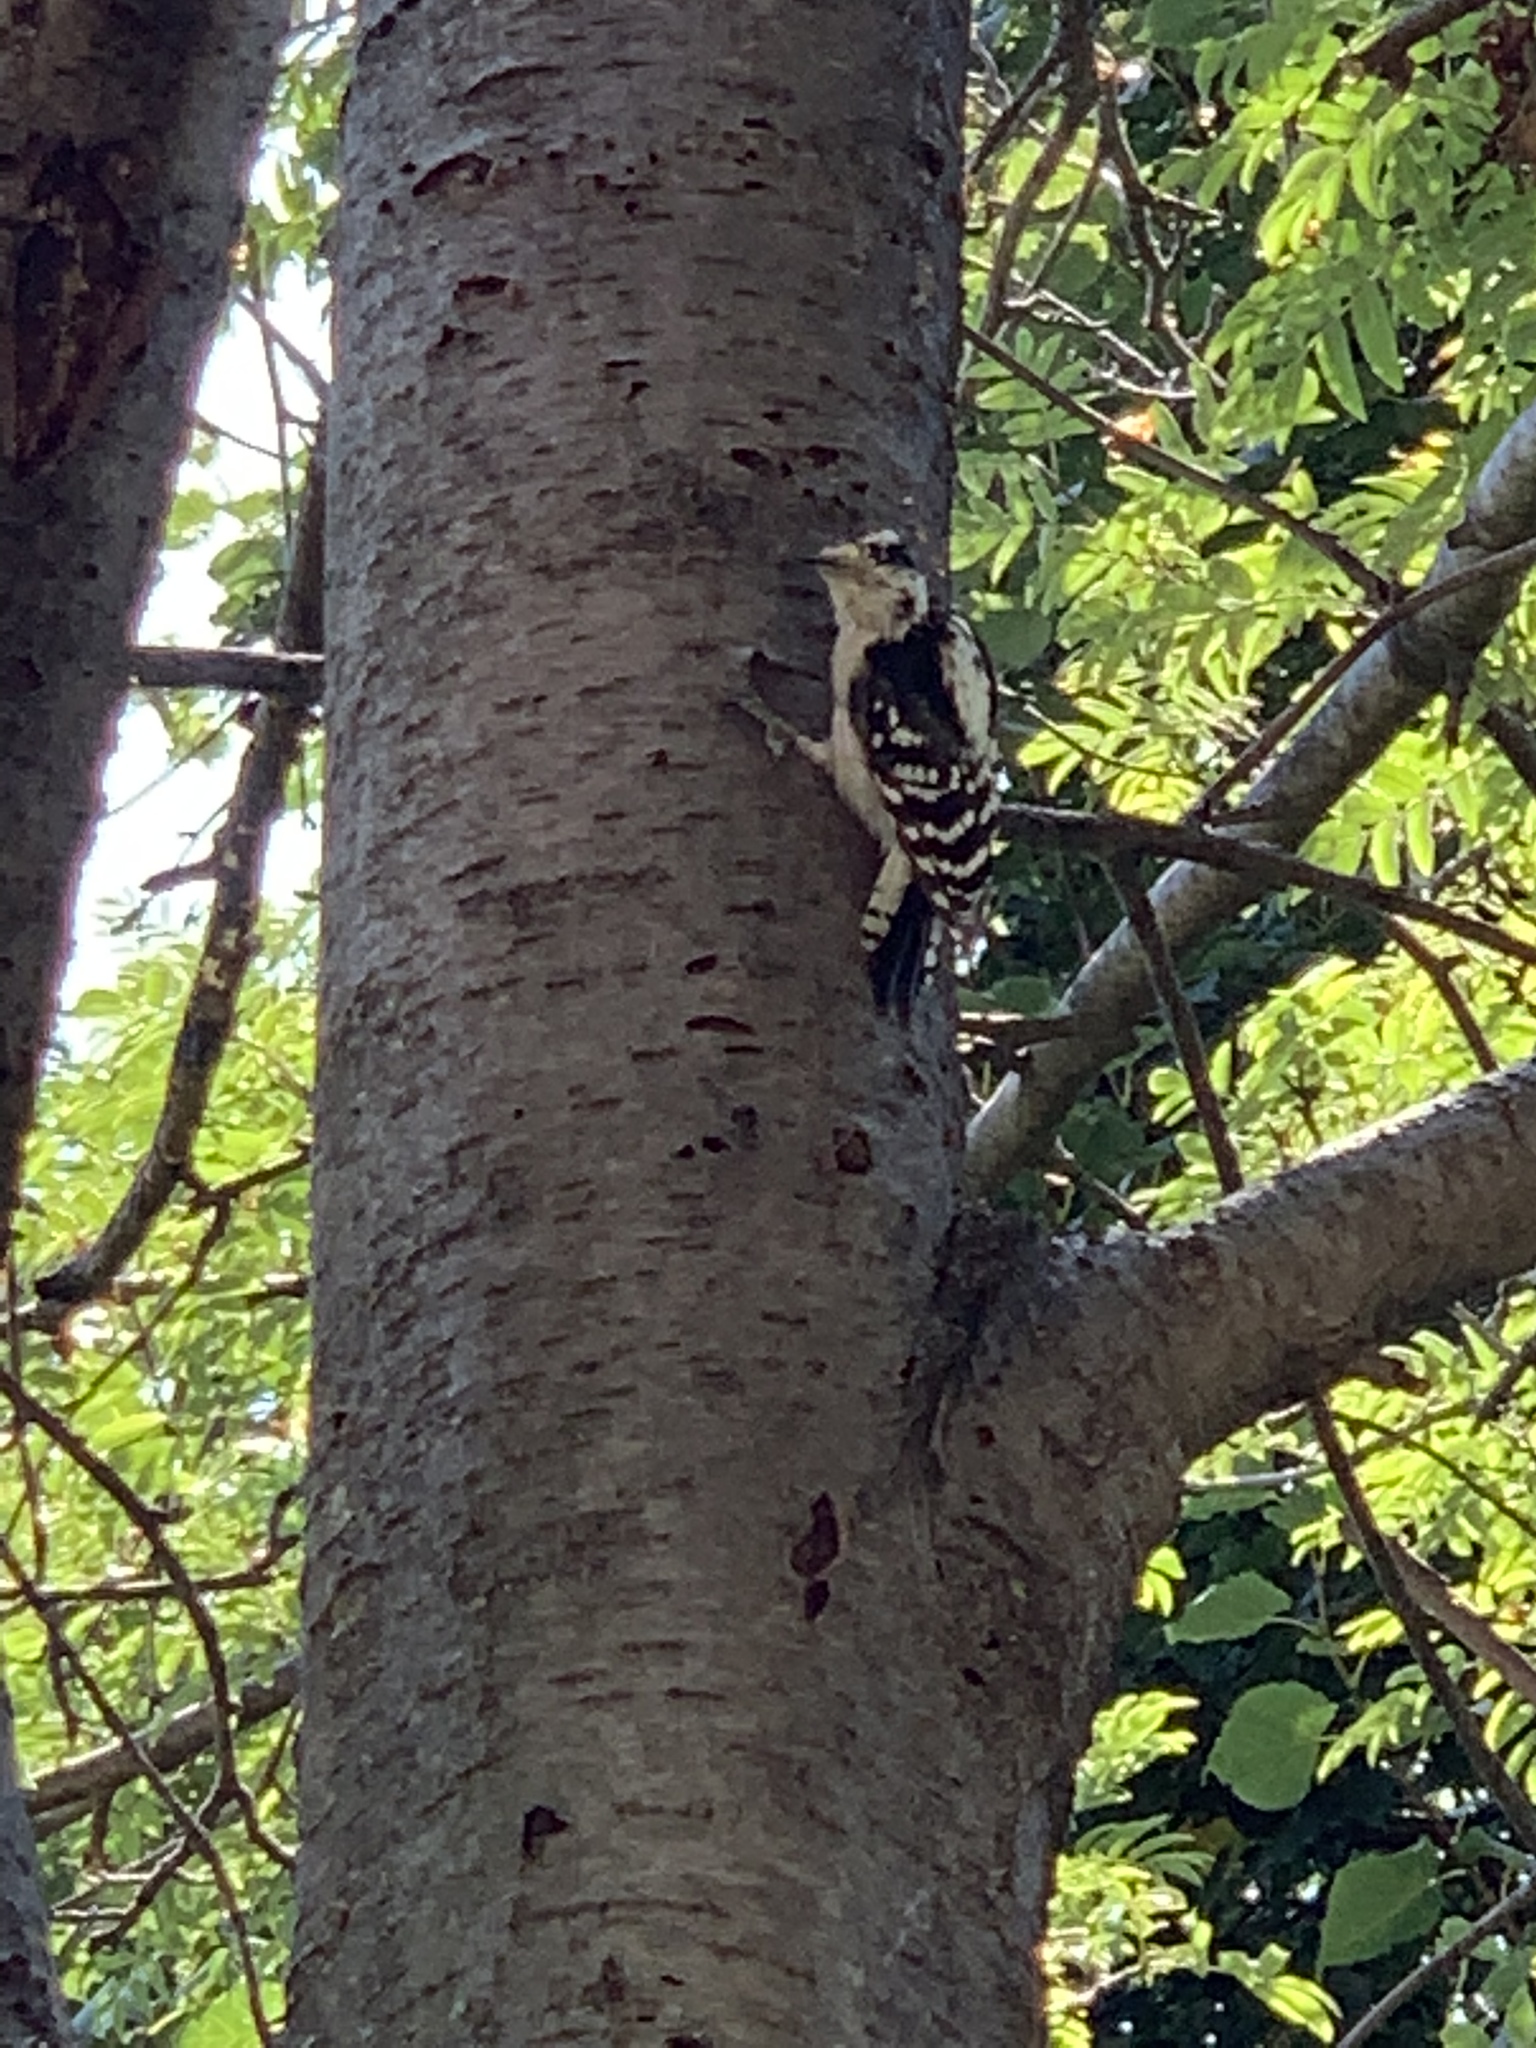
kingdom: Animalia
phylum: Chordata
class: Aves
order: Piciformes
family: Picidae
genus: Dryobates
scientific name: Dryobates pubescens
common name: Downy woodpecker
